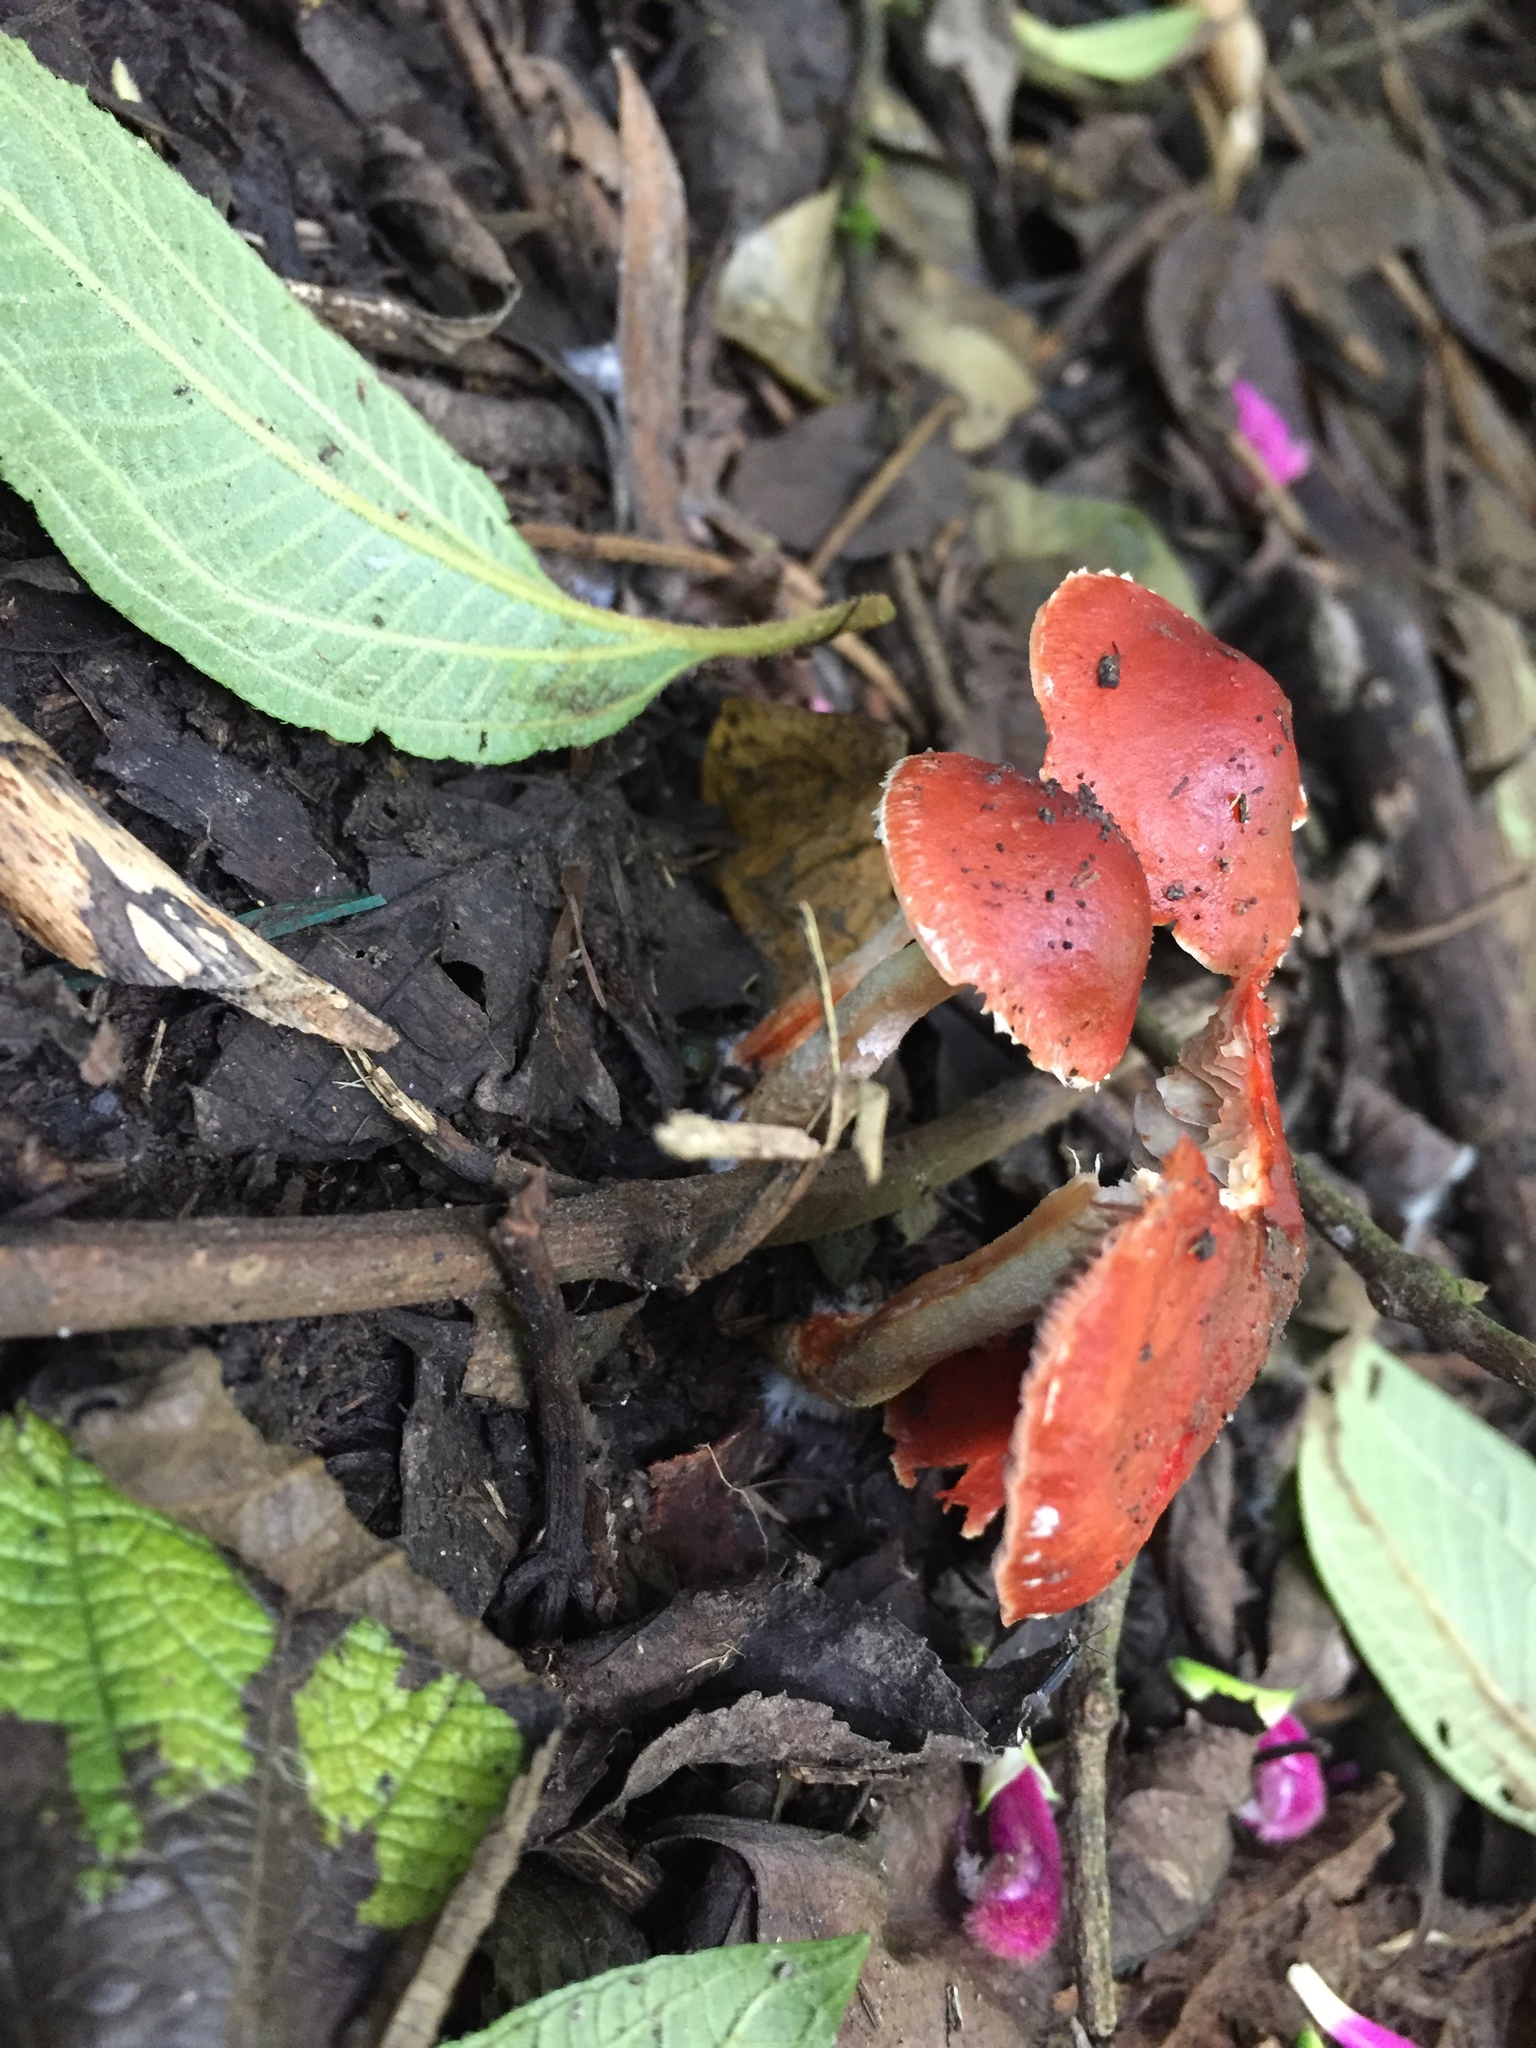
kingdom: Fungi
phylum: Basidiomycota
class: Agaricomycetes
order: Agaricales
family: Strophariaceae
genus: Leratiomyces
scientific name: Leratiomyces ceres
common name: Redlead roundhead
